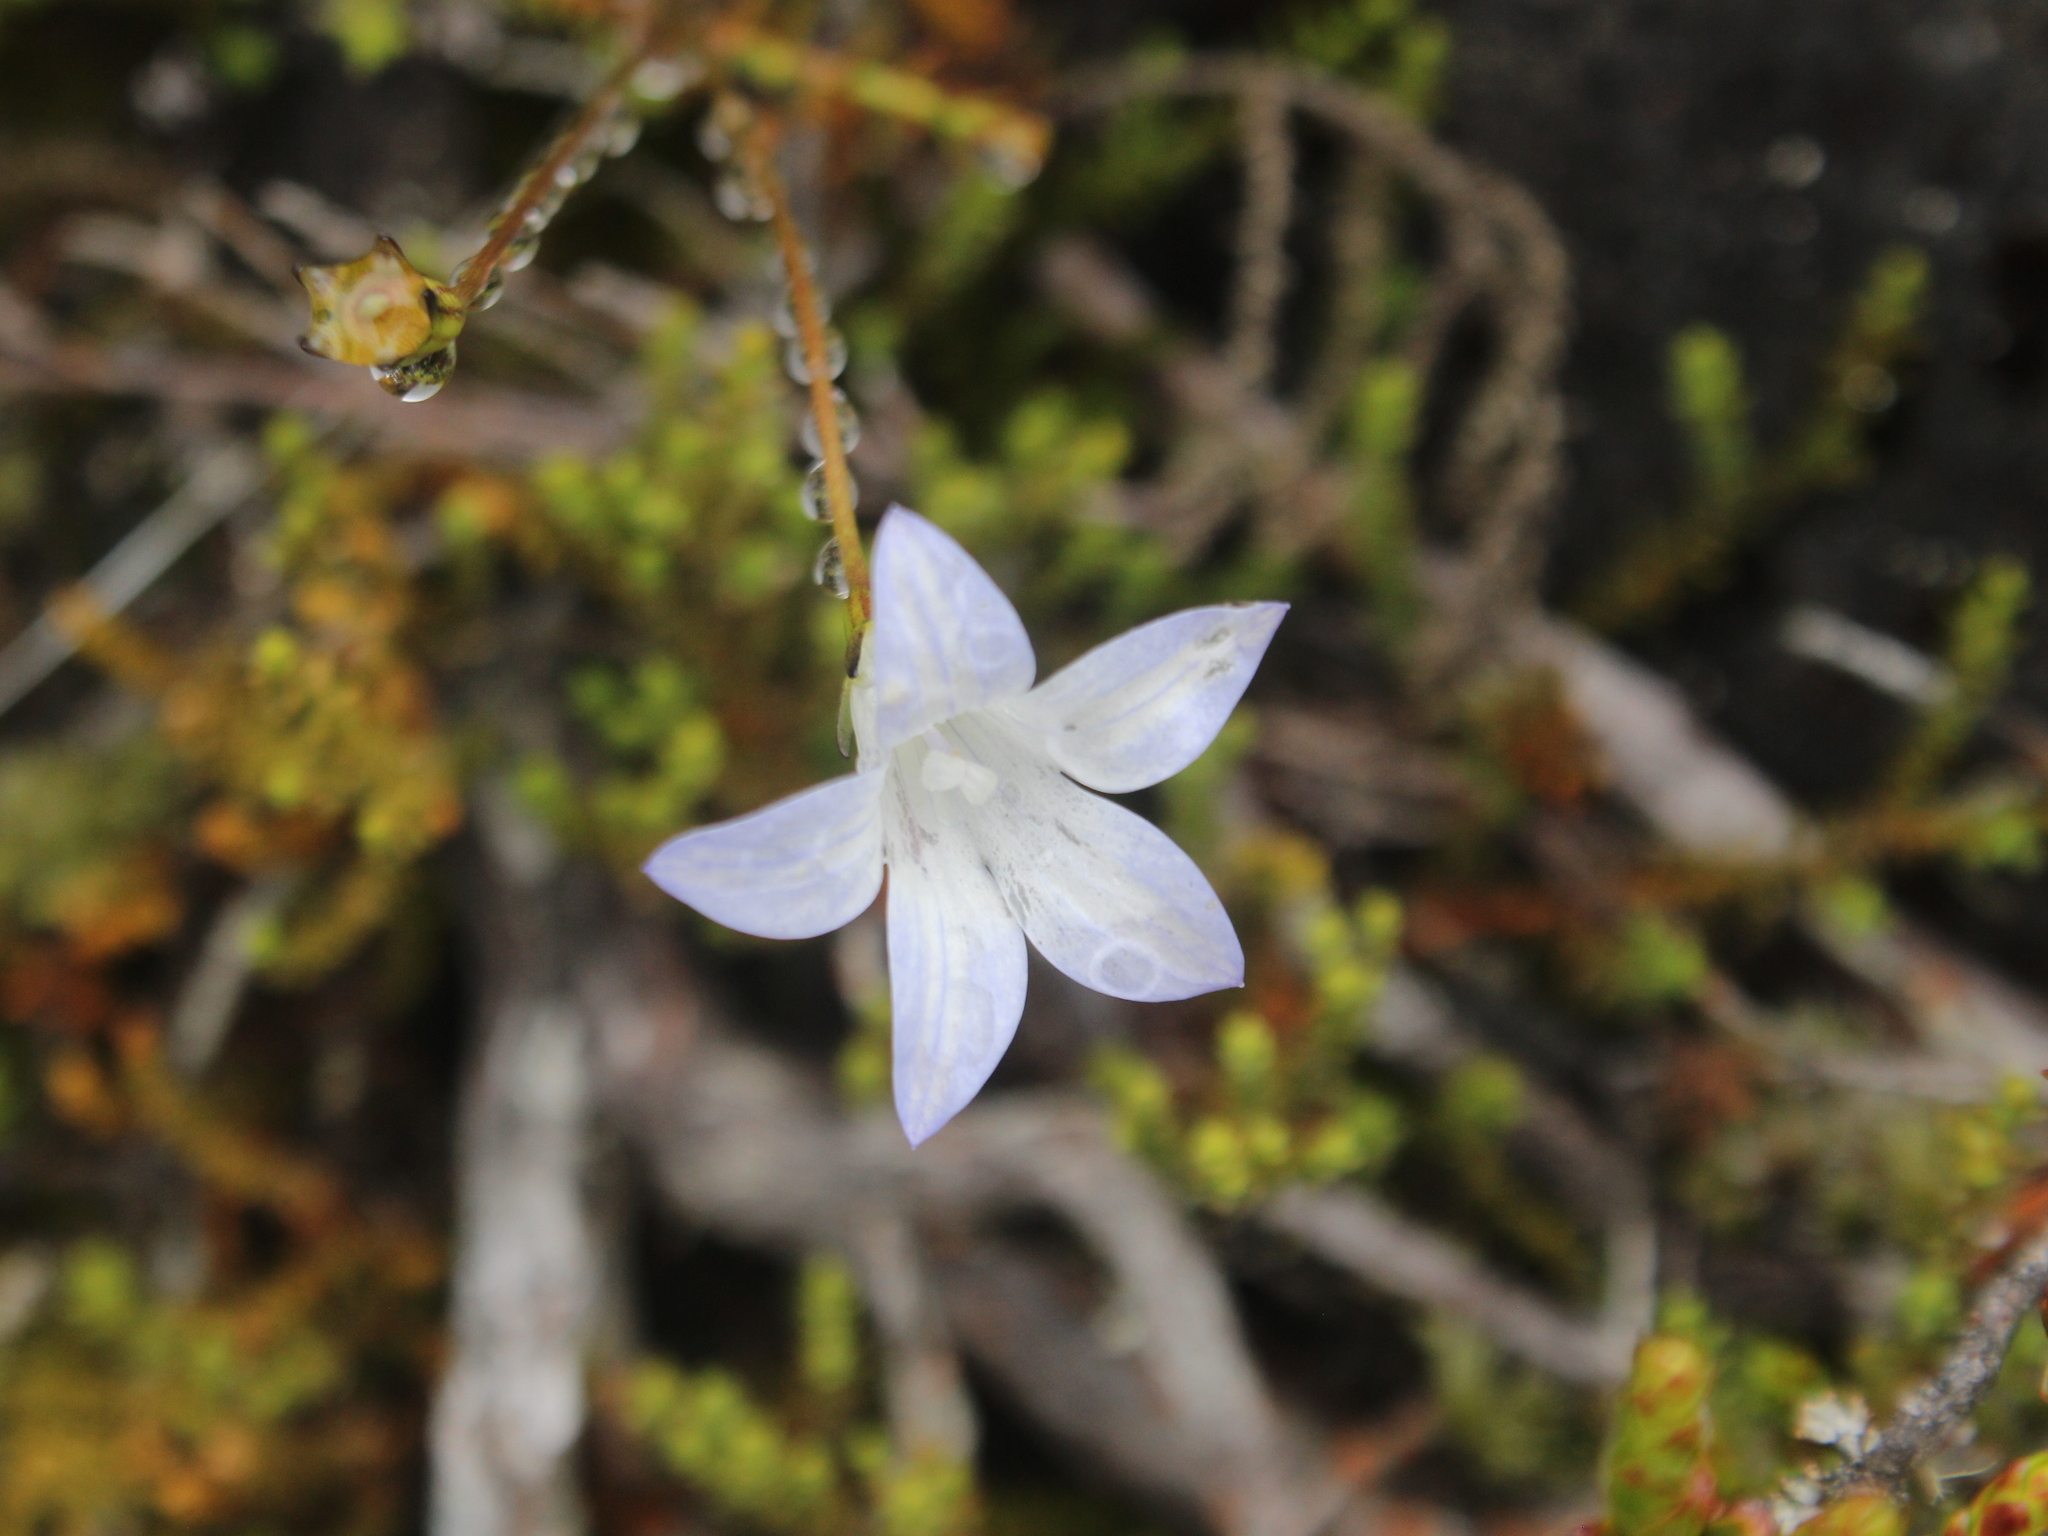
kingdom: Plantae
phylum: Tracheophyta
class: Magnoliopsida
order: Asterales
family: Campanulaceae
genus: Wahlenbergia
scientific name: Wahlenbergia pygmaea
